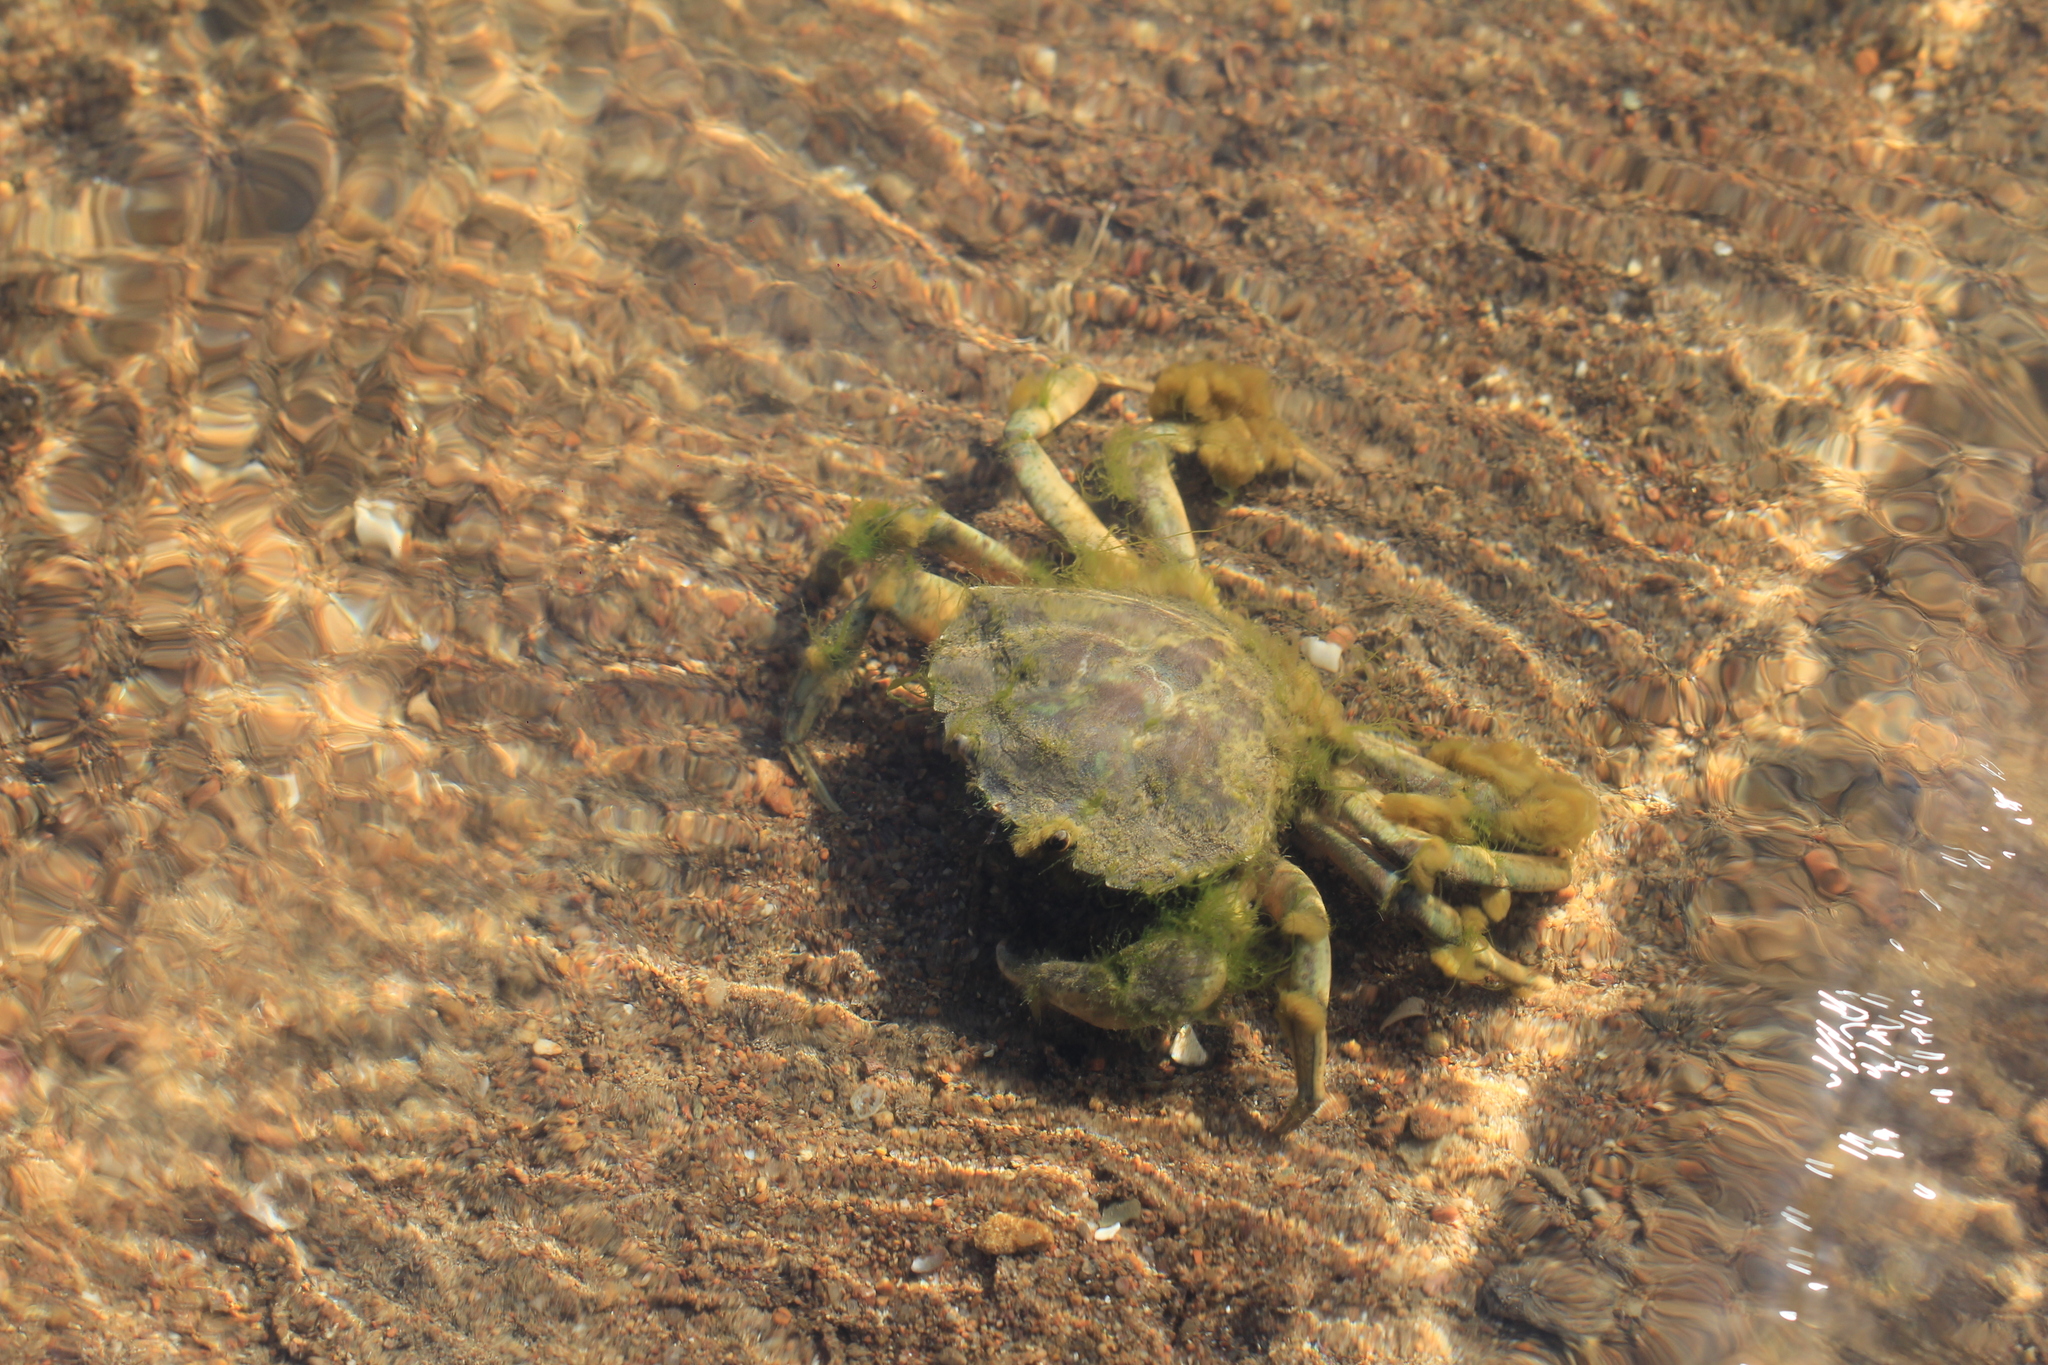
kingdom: Animalia
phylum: Arthropoda
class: Malacostraca
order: Decapoda
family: Carcinidae
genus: Carcinus
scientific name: Carcinus maenas
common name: European green crab
